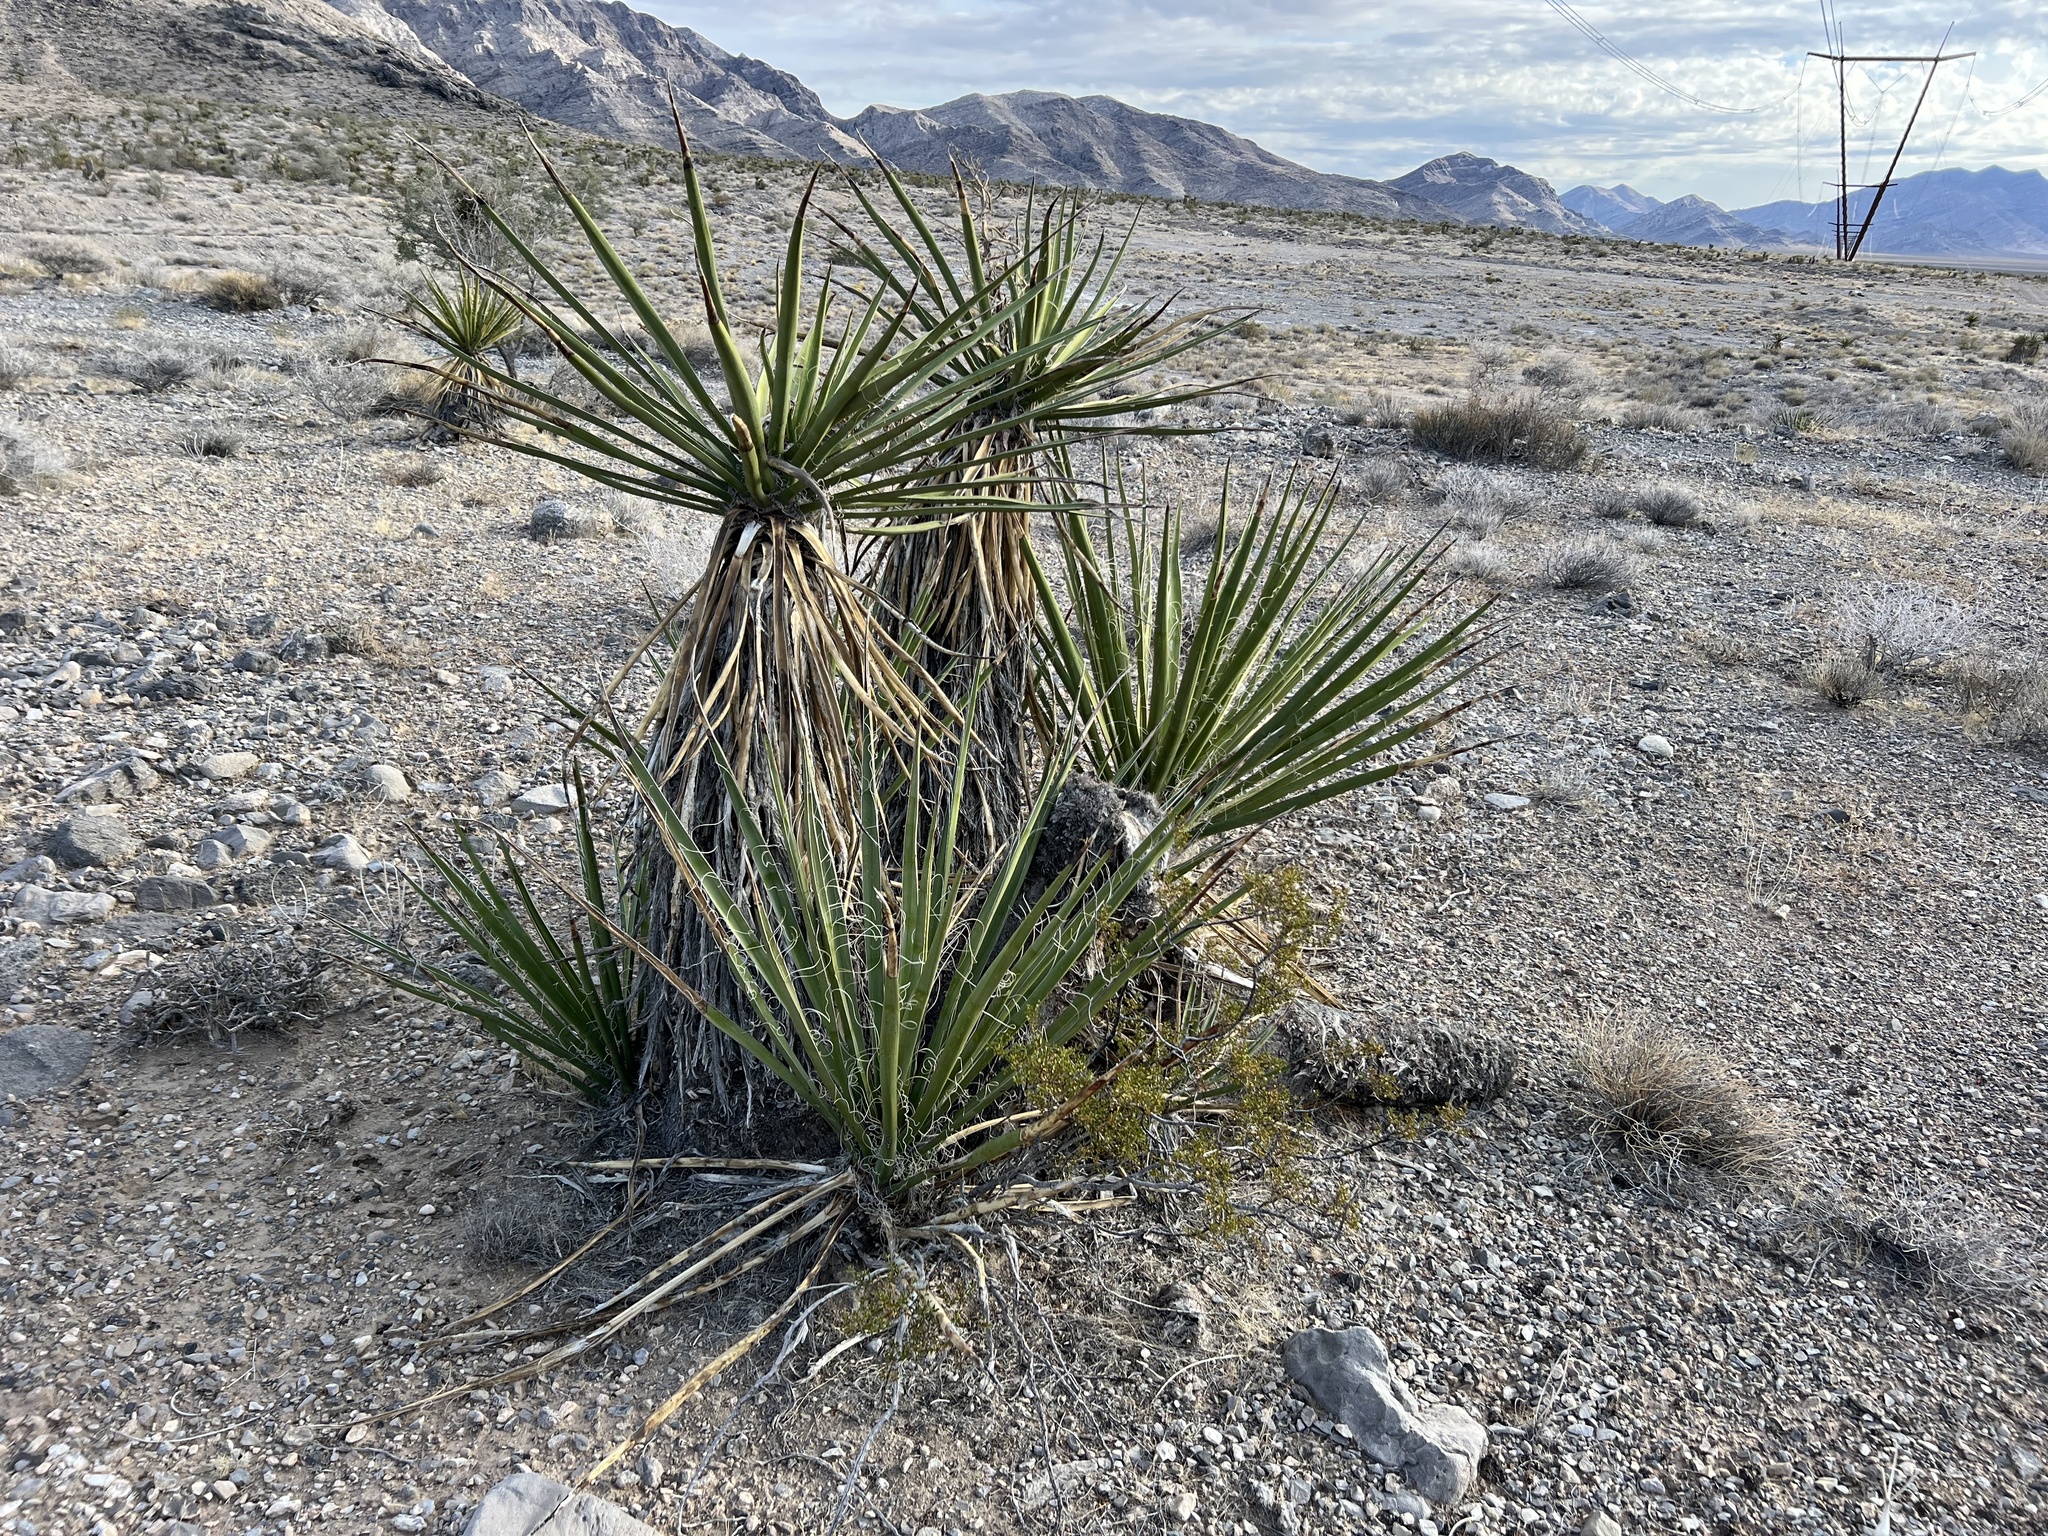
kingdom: Plantae
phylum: Tracheophyta
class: Liliopsida
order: Asparagales
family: Asparagaceae
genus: Yucca
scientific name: Yucca schidigera
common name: Mojave yucca
